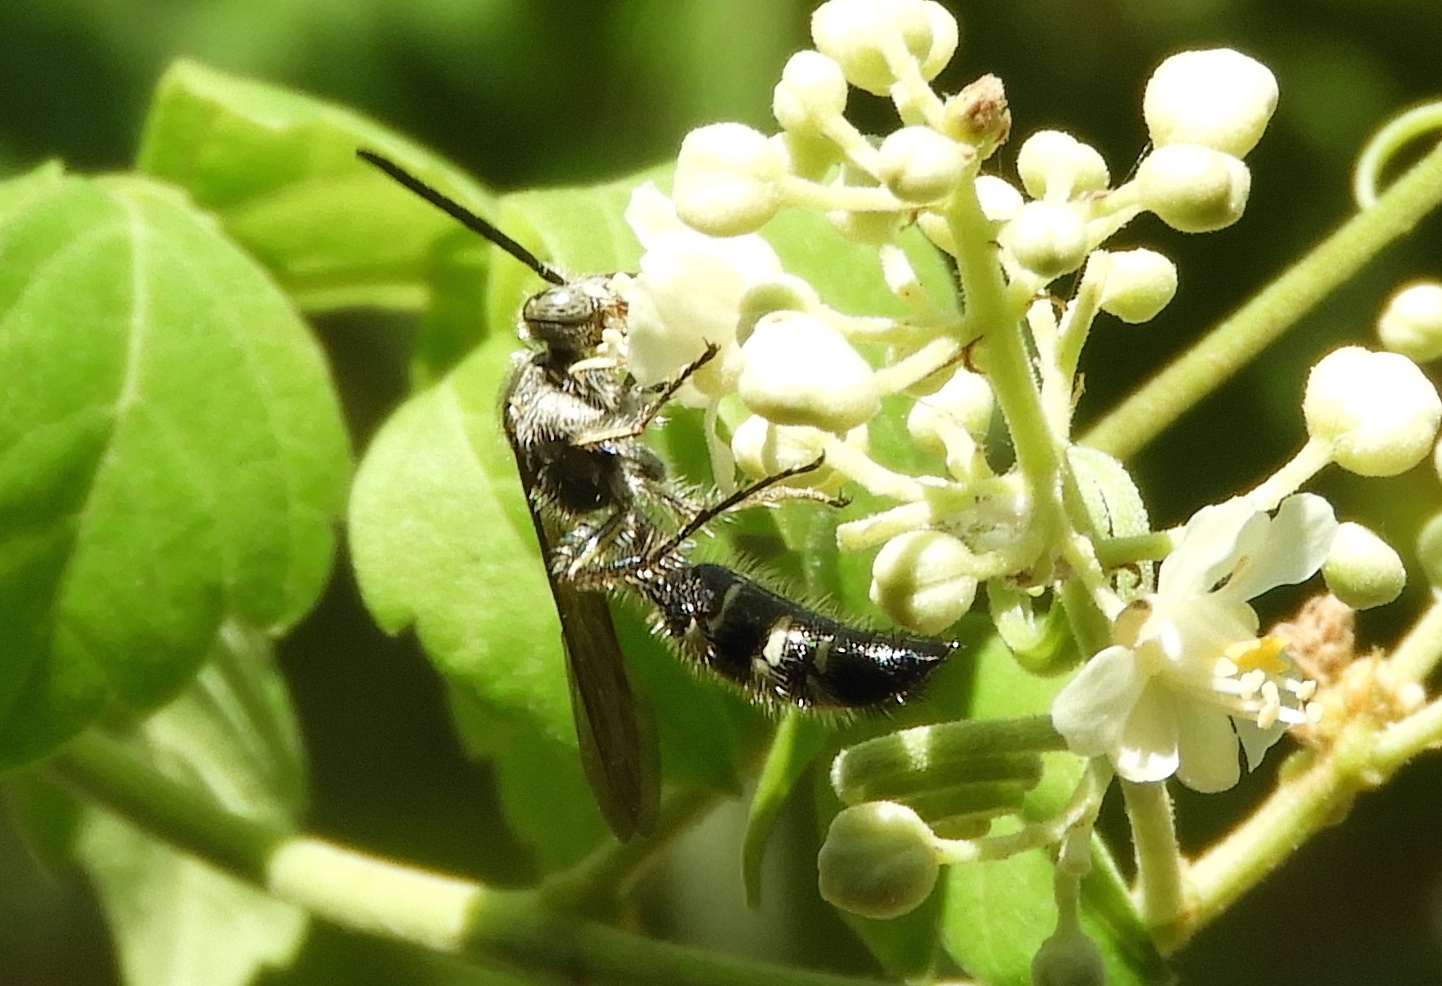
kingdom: Animalia
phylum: Arthropoda
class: Insecta
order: Hymenoptera
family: Scoliidae
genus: Dielis
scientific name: Dielis tolteca
